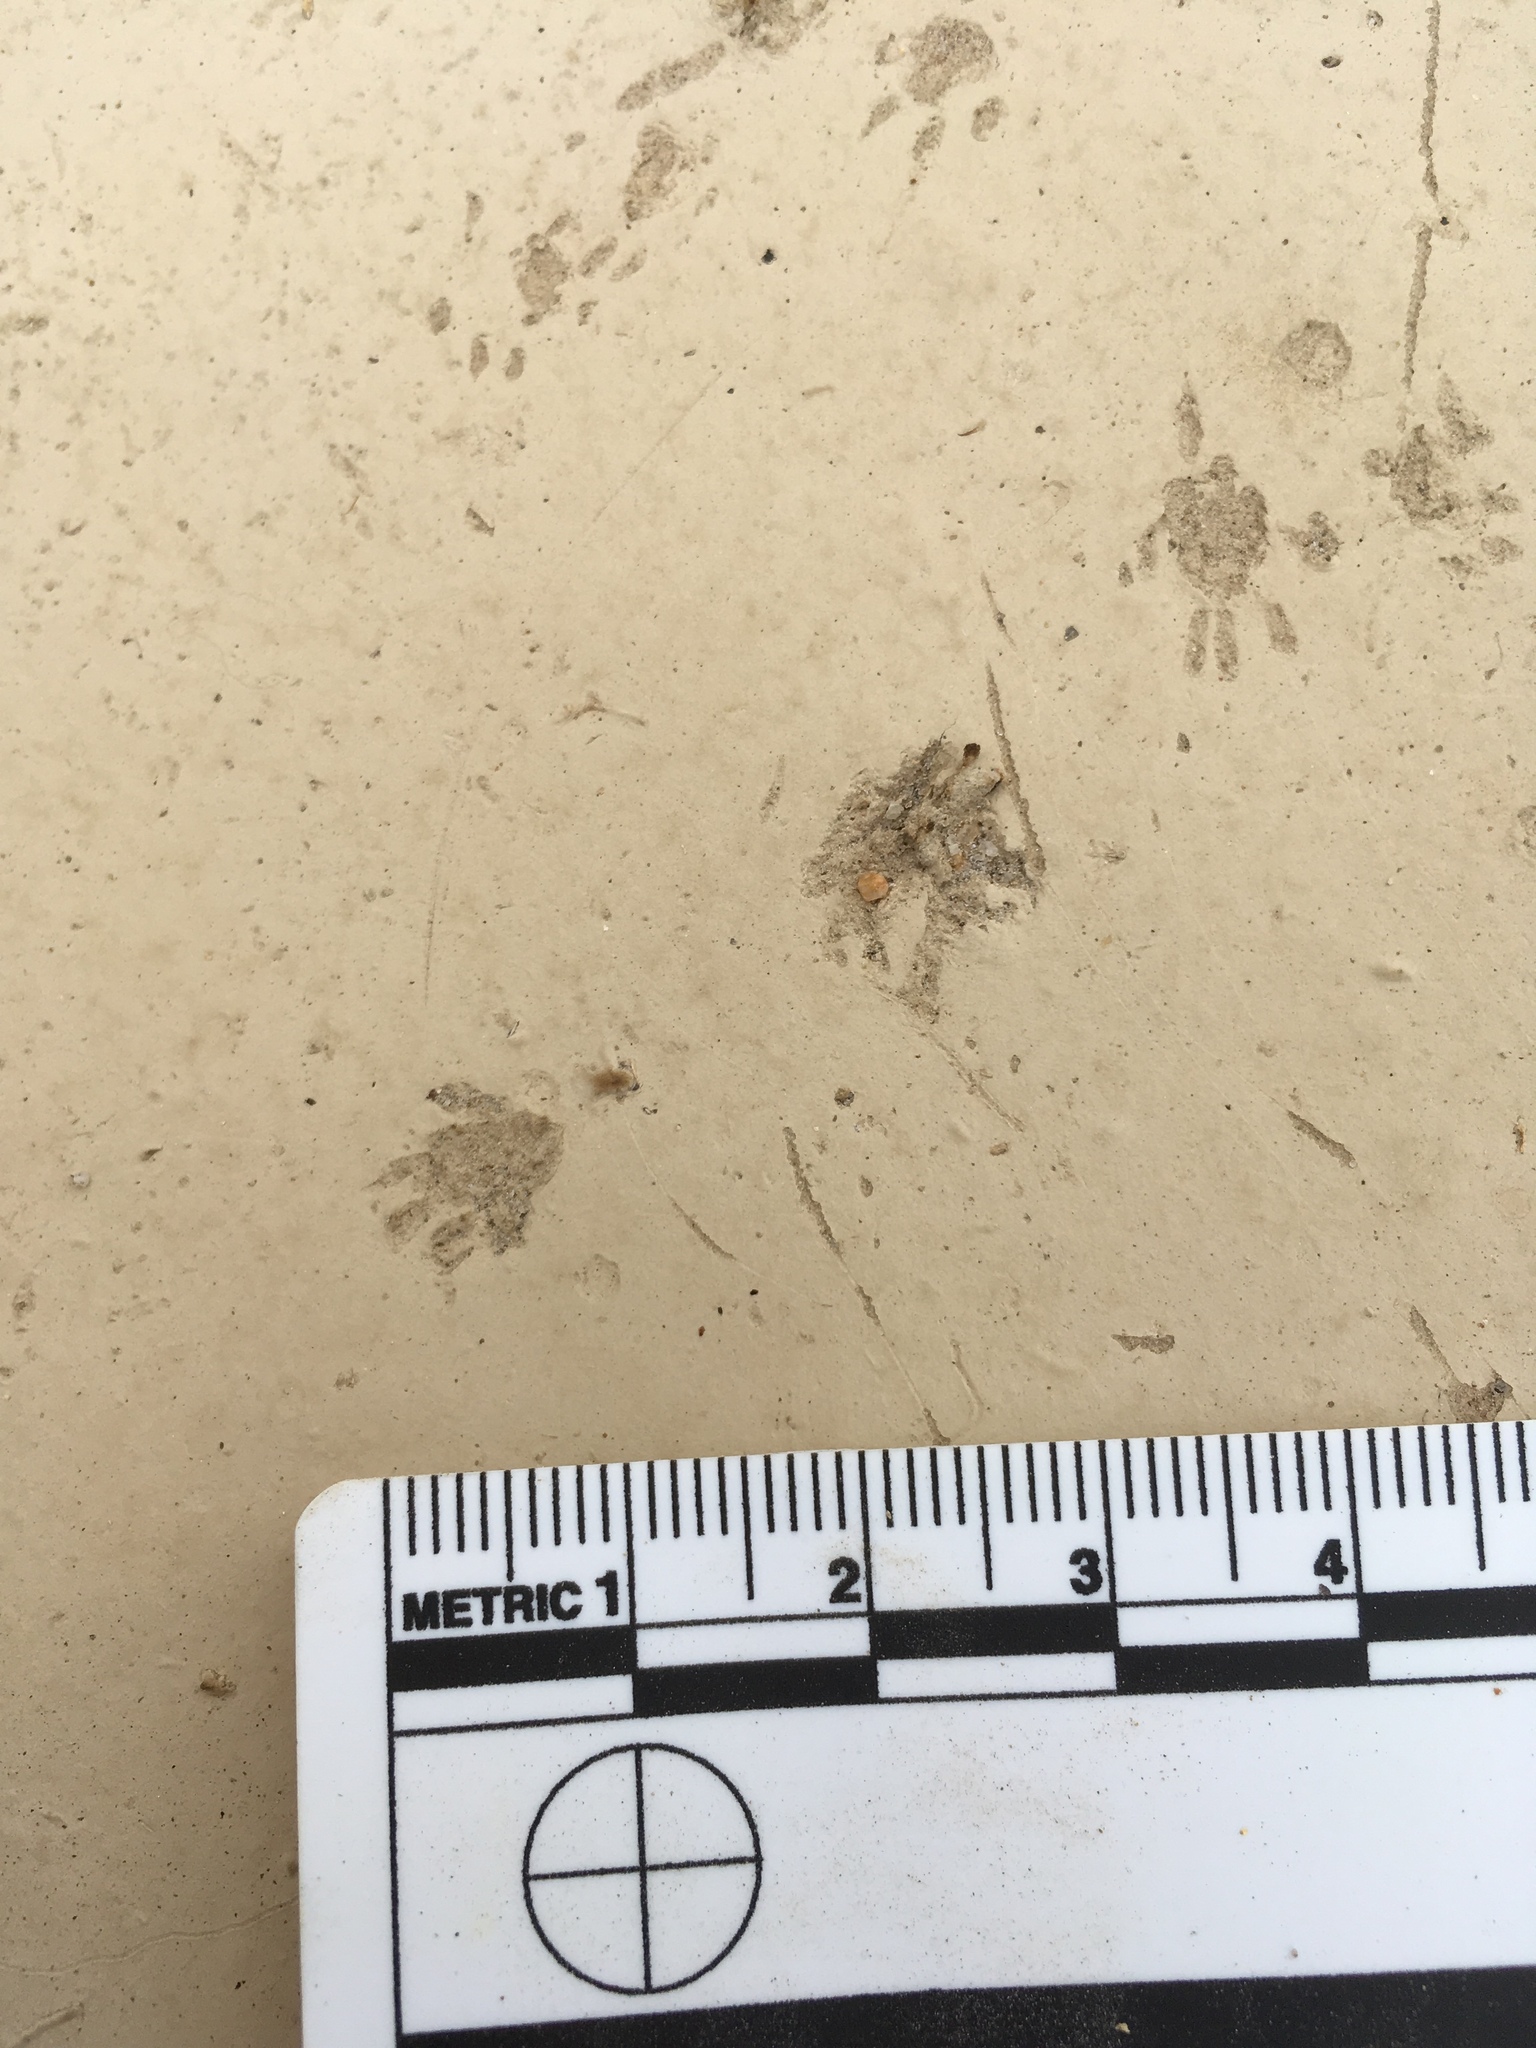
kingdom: Animalia
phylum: Chordata
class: Mammalia
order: Rodentia
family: Sciuridae
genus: Ammospermophilus
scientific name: Ammospermophilus leucurus
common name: White-tailed antelope squirrel
